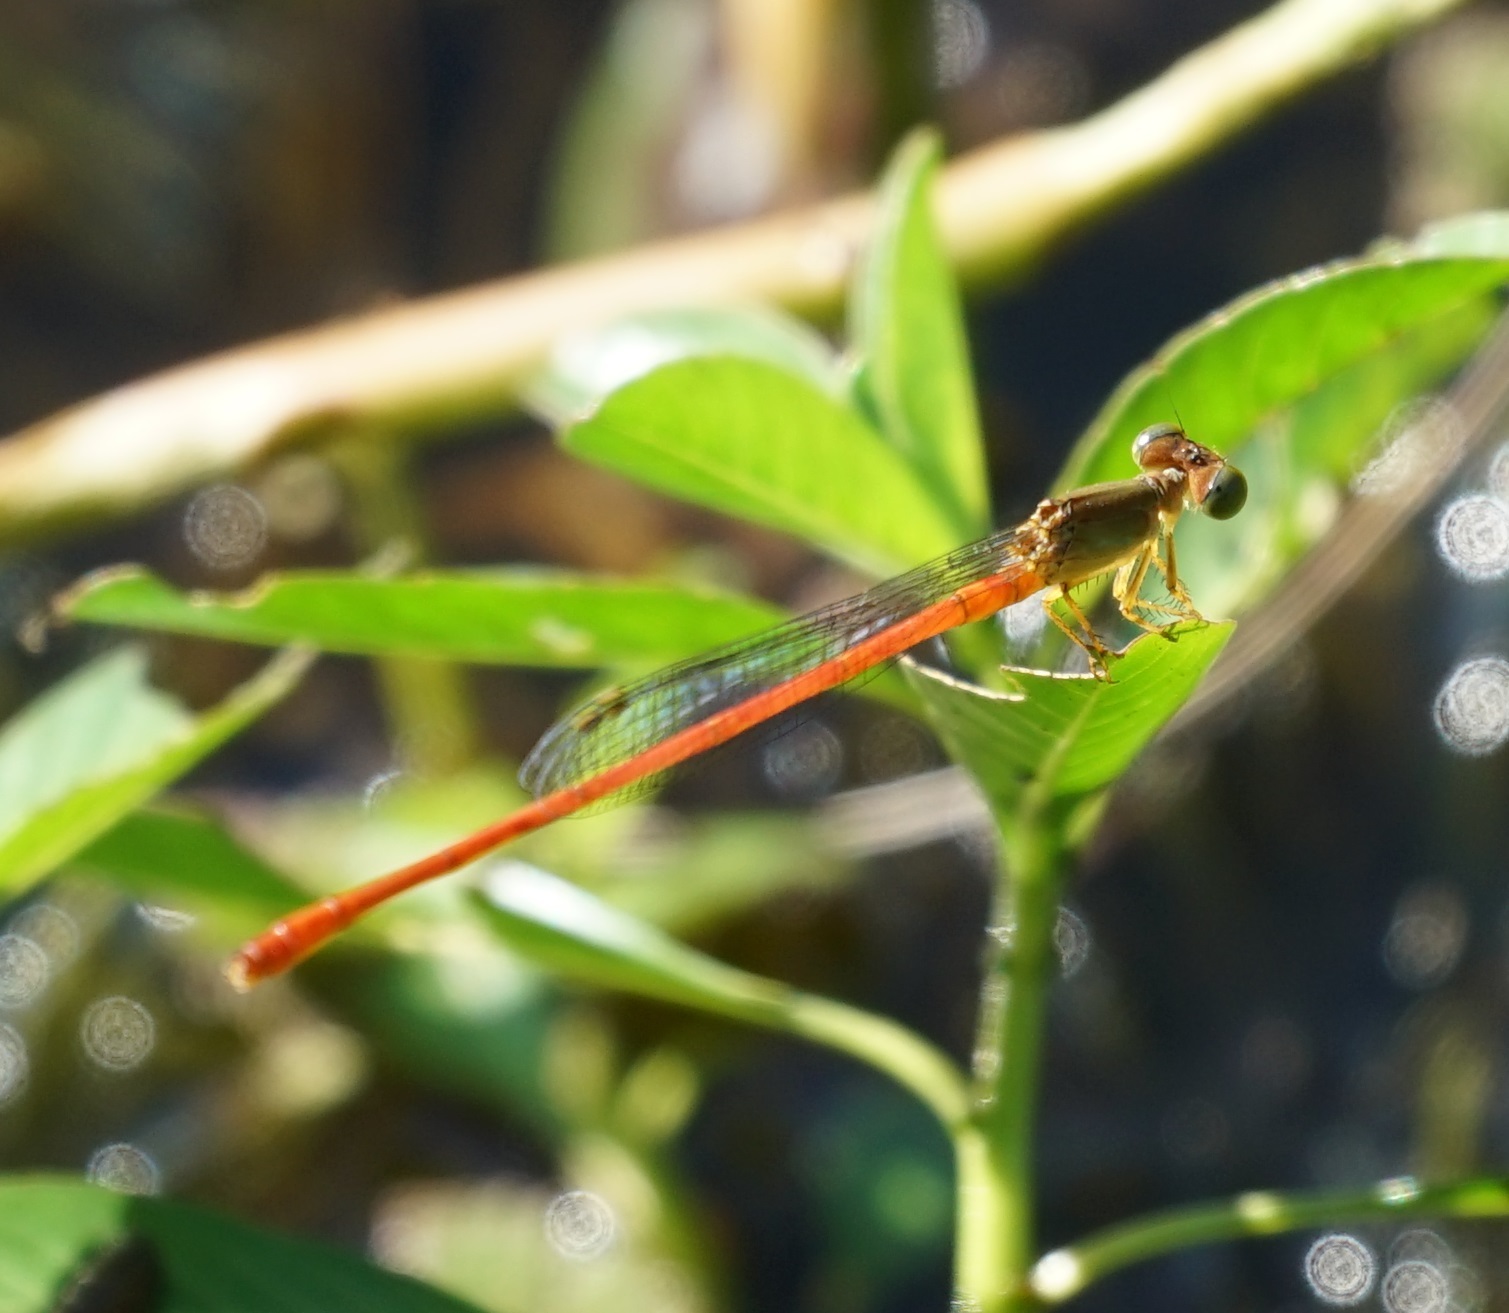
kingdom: Animalia
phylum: Arthropoda
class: Insecta
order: Odonata
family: Coenagrionidae
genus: Ceriagrion
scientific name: Ceriagrion aeruginosum
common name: Redtail
